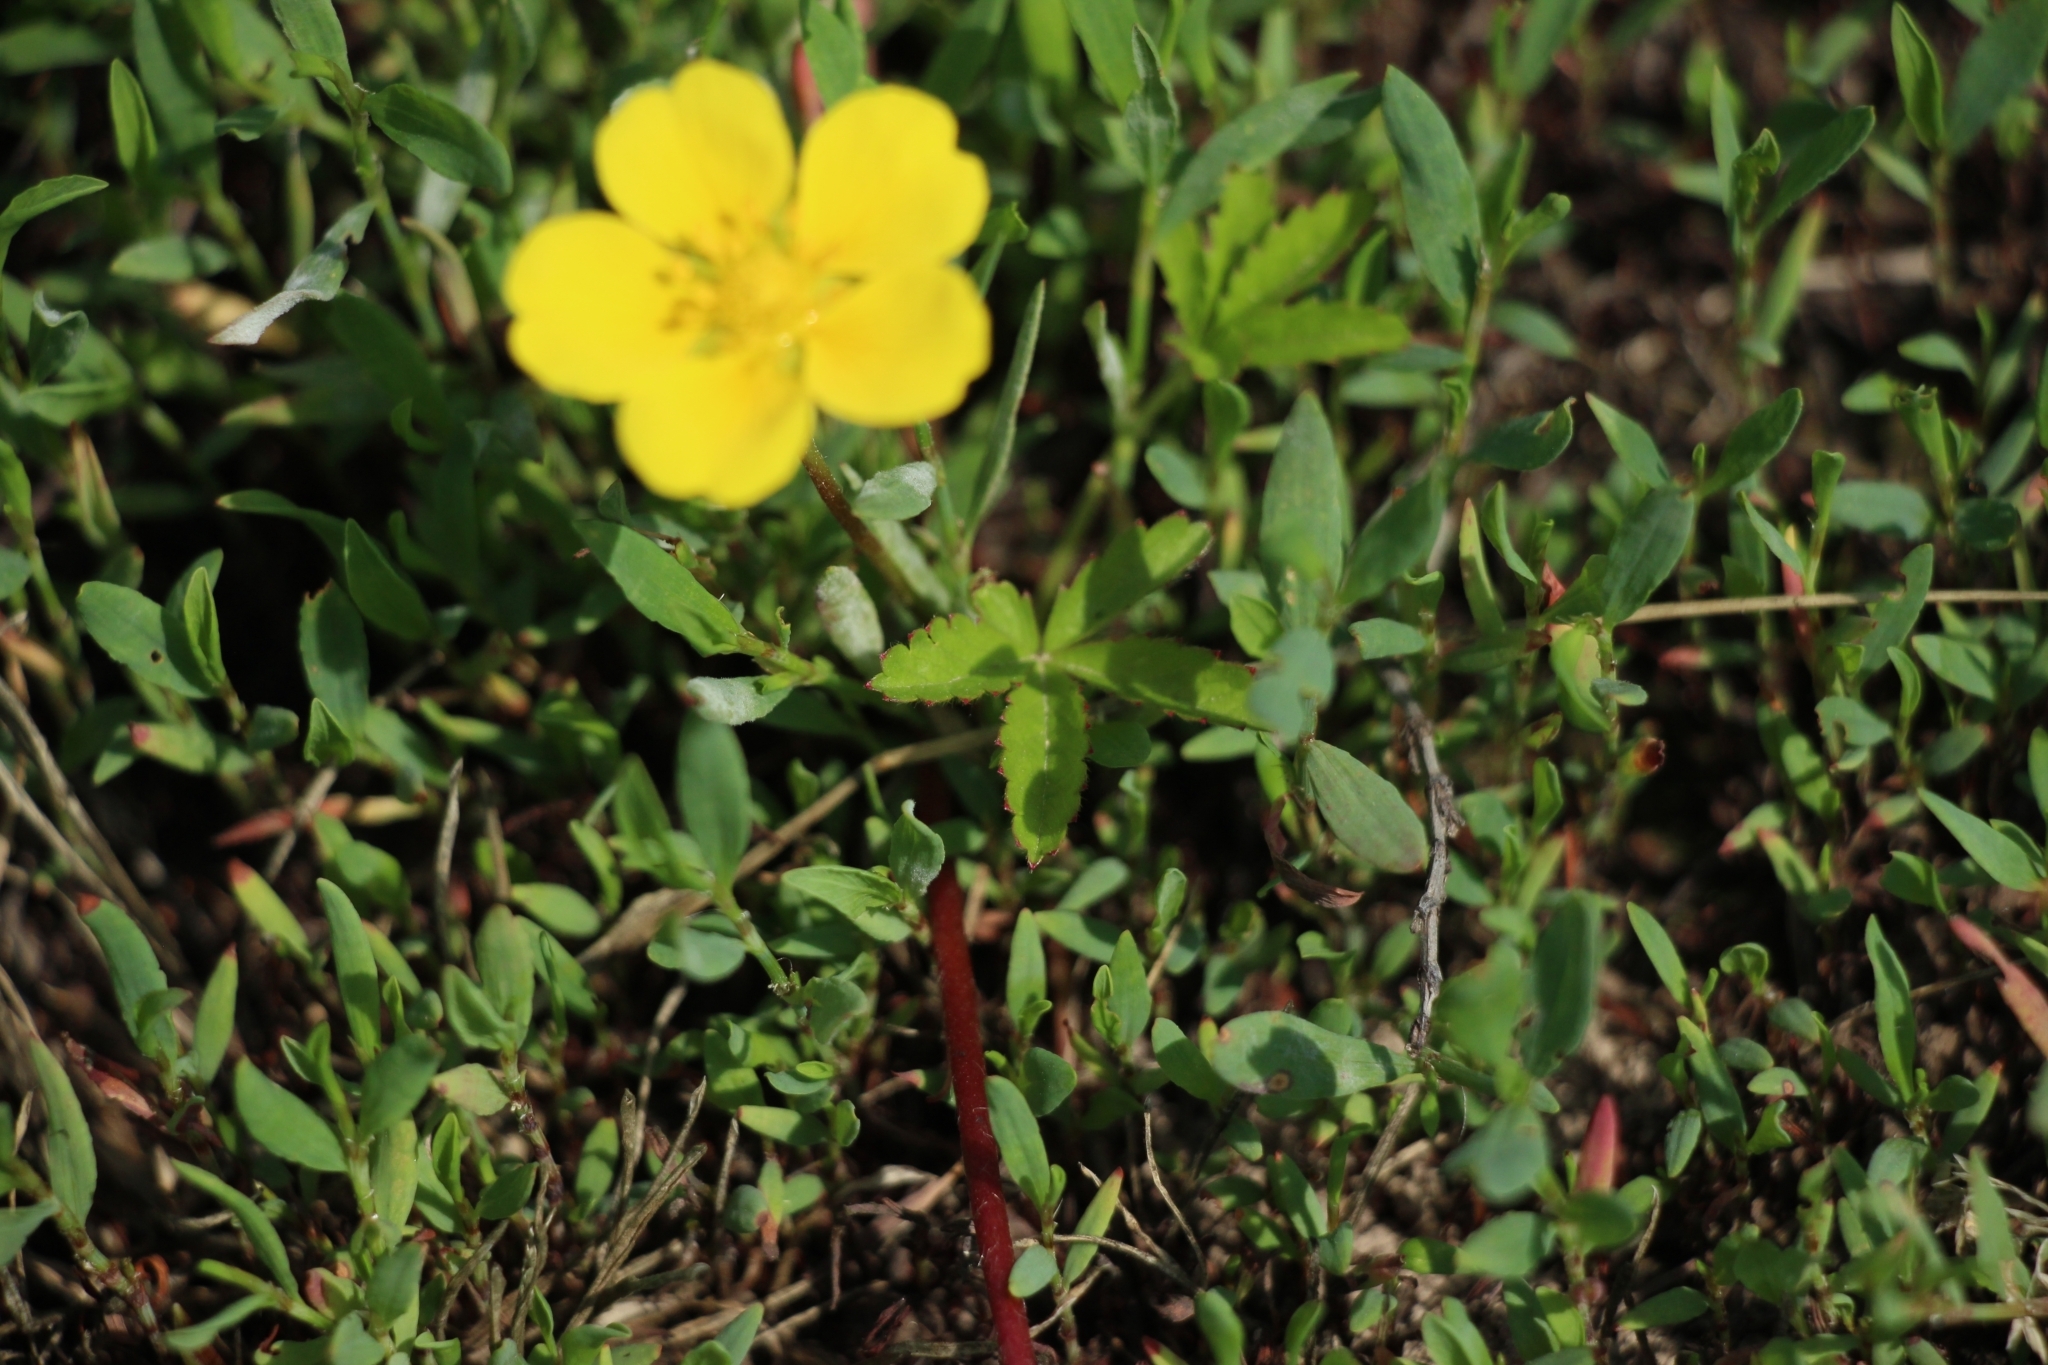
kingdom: Plantae
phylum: Tracheophyta
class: Magnoliopsida
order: Rosales
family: Rosaceae
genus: Potentilla
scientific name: Potentilla reptans
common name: Creeping cinquefoil
